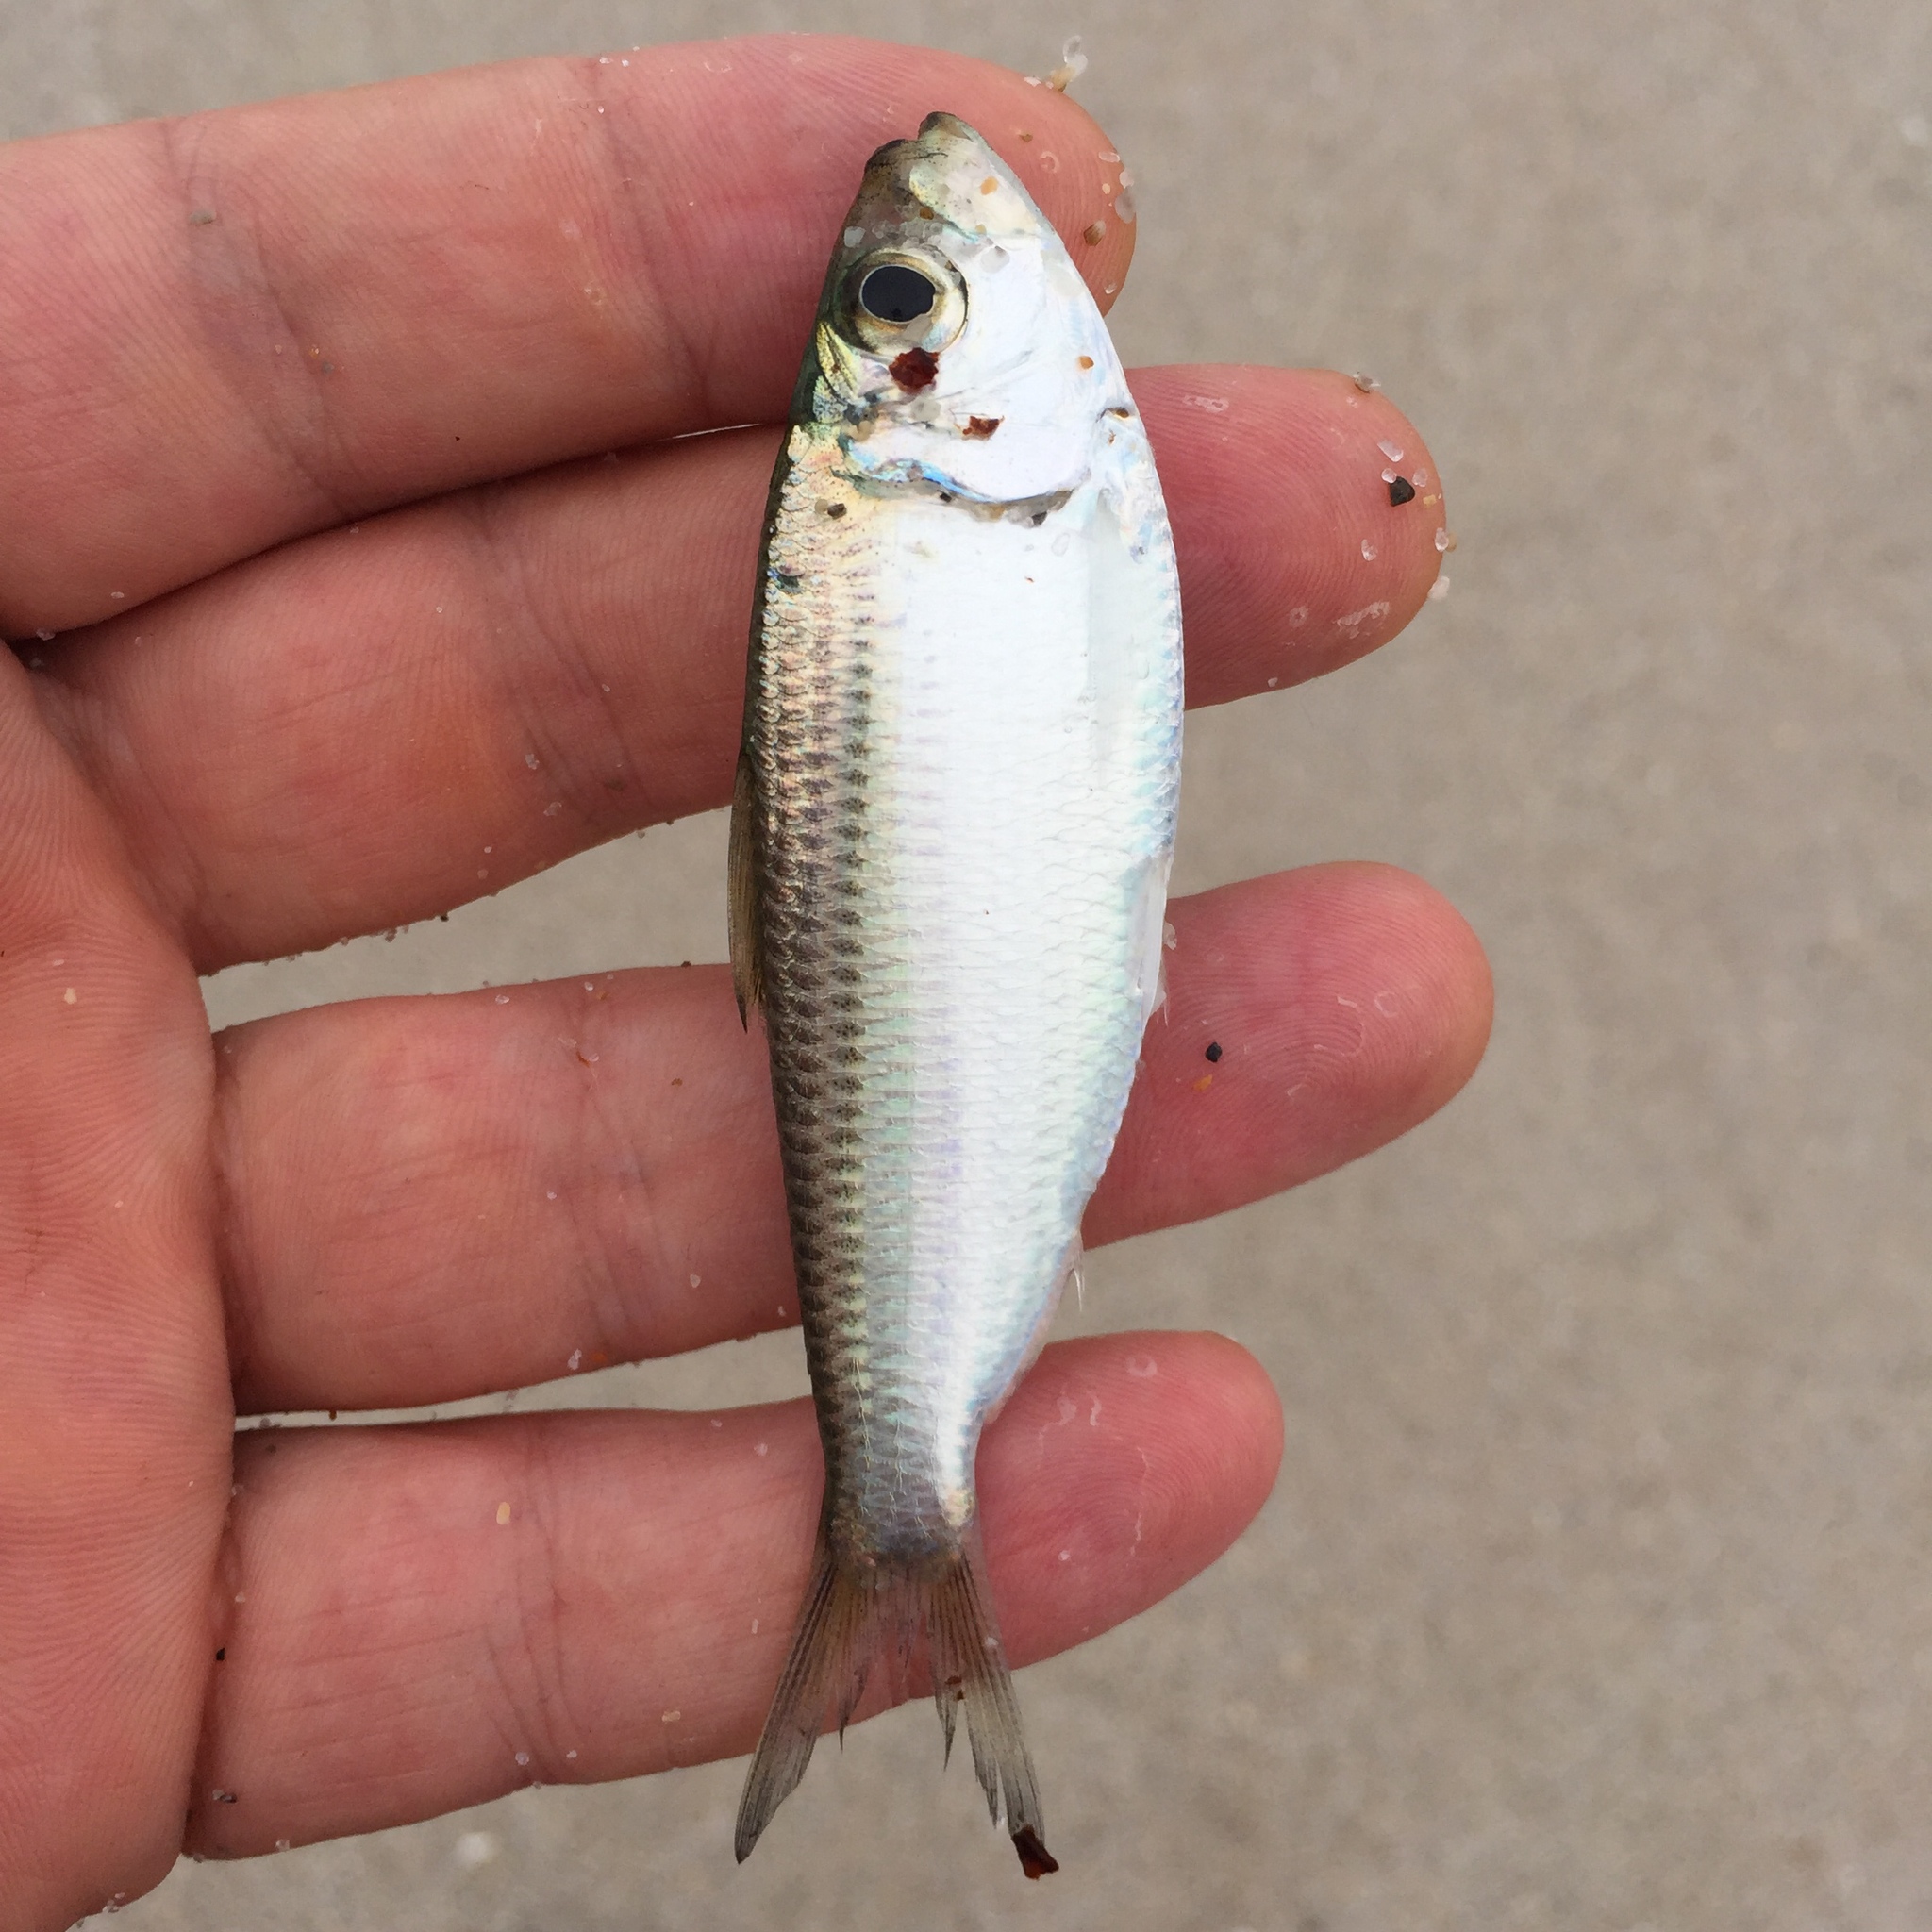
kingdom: Animalia
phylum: Chordata
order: Clupeiformes
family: Clupeidae
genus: Harengula
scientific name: Harengula jaguana
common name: Scaled sardine
